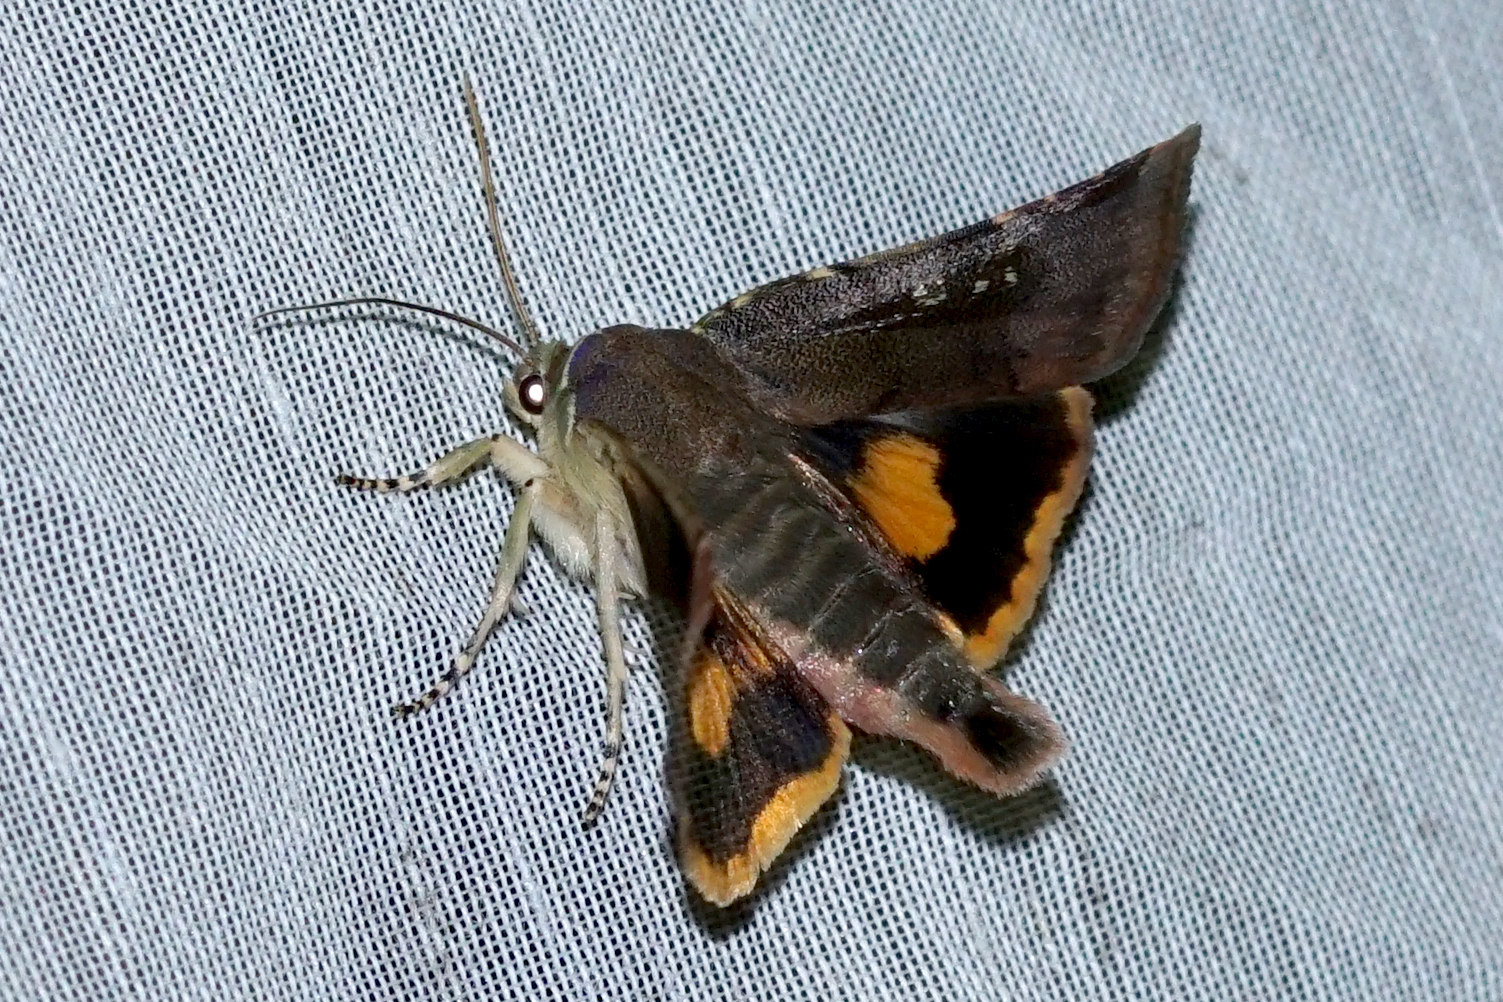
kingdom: Animalia
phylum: Arthropoda
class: Insecta
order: Lepidoptera
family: Noctuidae
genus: Noctua
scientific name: Noctua janthina
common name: Langmaid's yellow underwing
